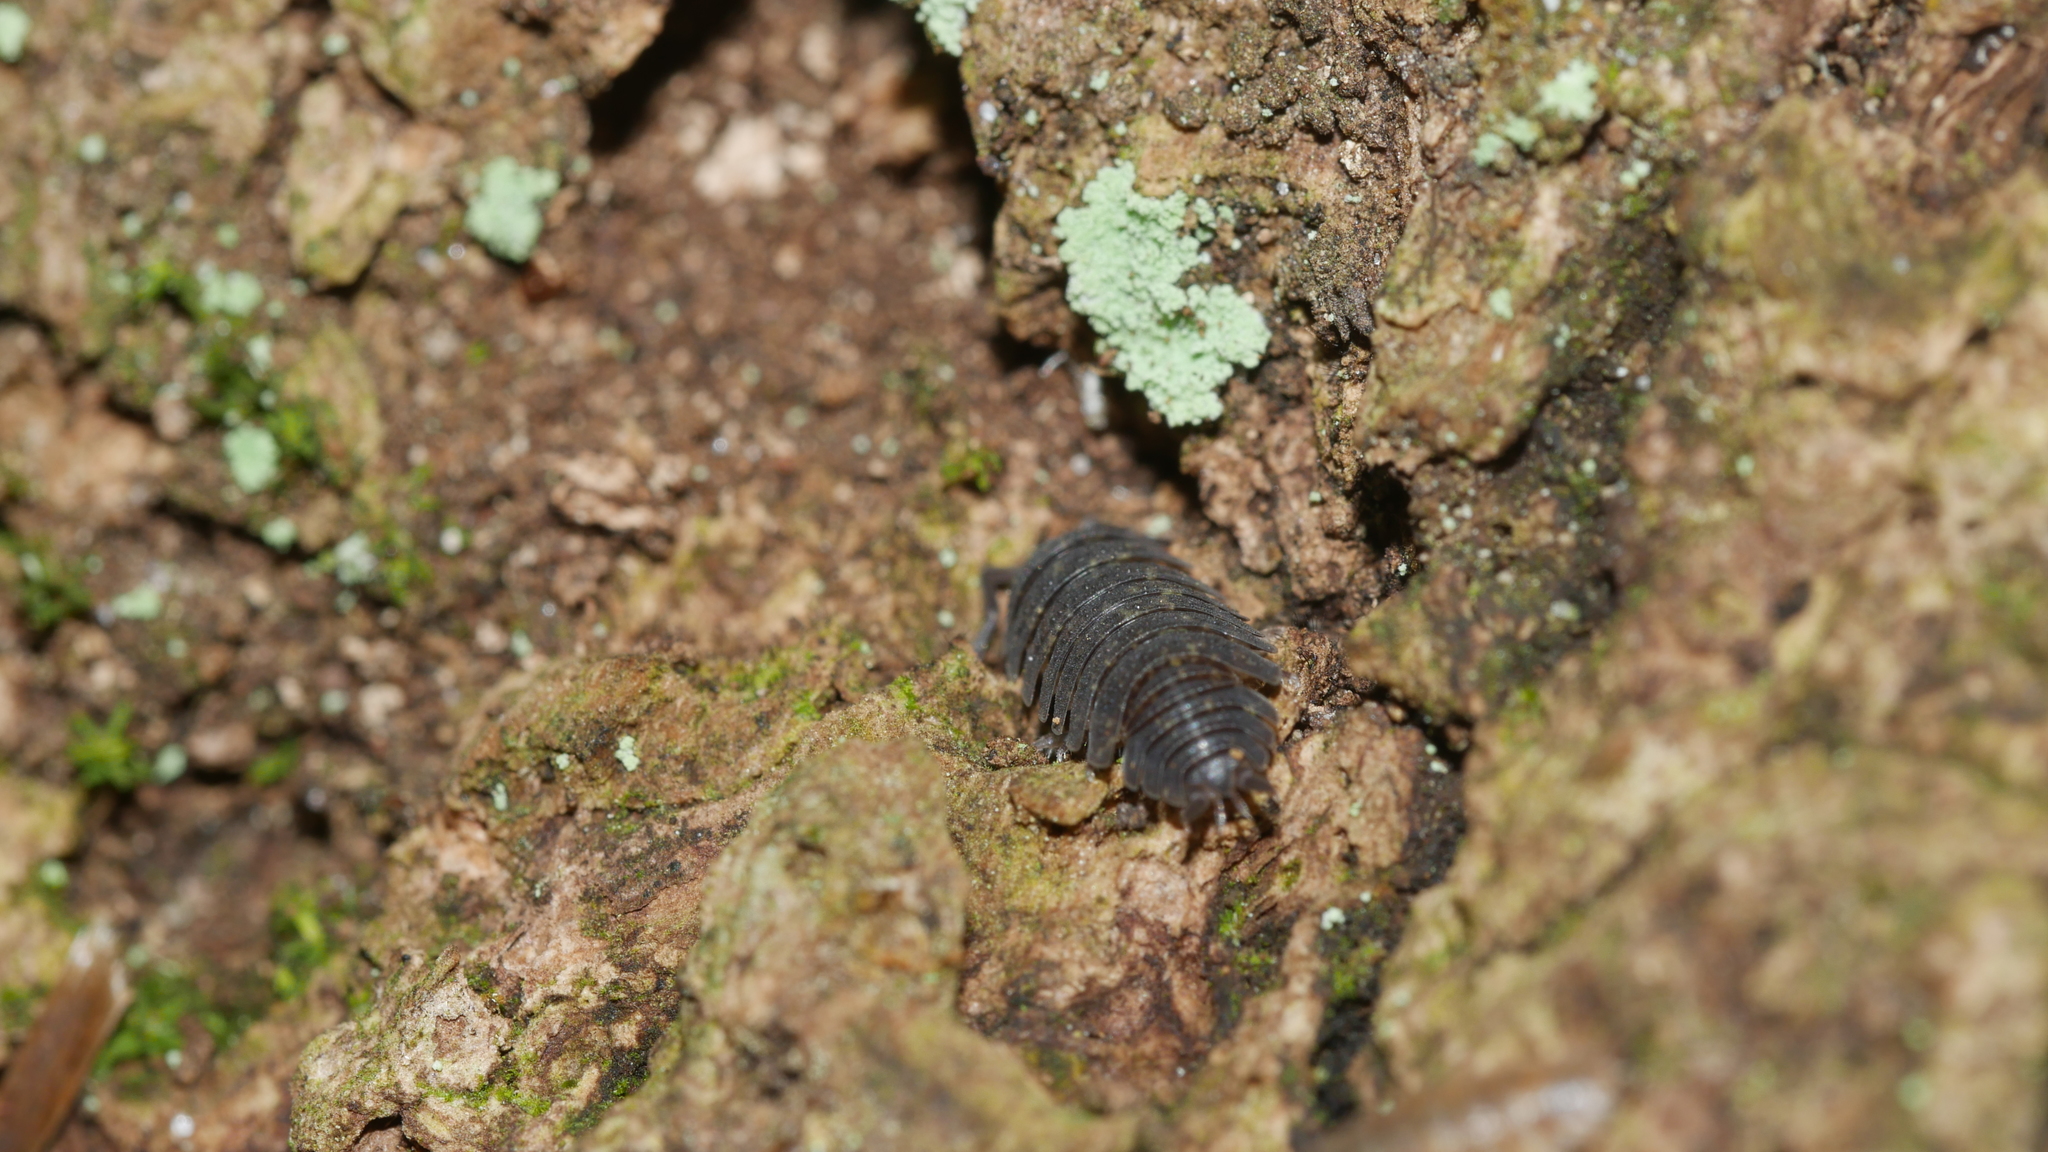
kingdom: Animalia
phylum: Arthropoda
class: Malacostraca
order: Isopoda
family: Porcellionidae
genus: Porcellio
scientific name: Porcellio scaber
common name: Common rough woodlouse
